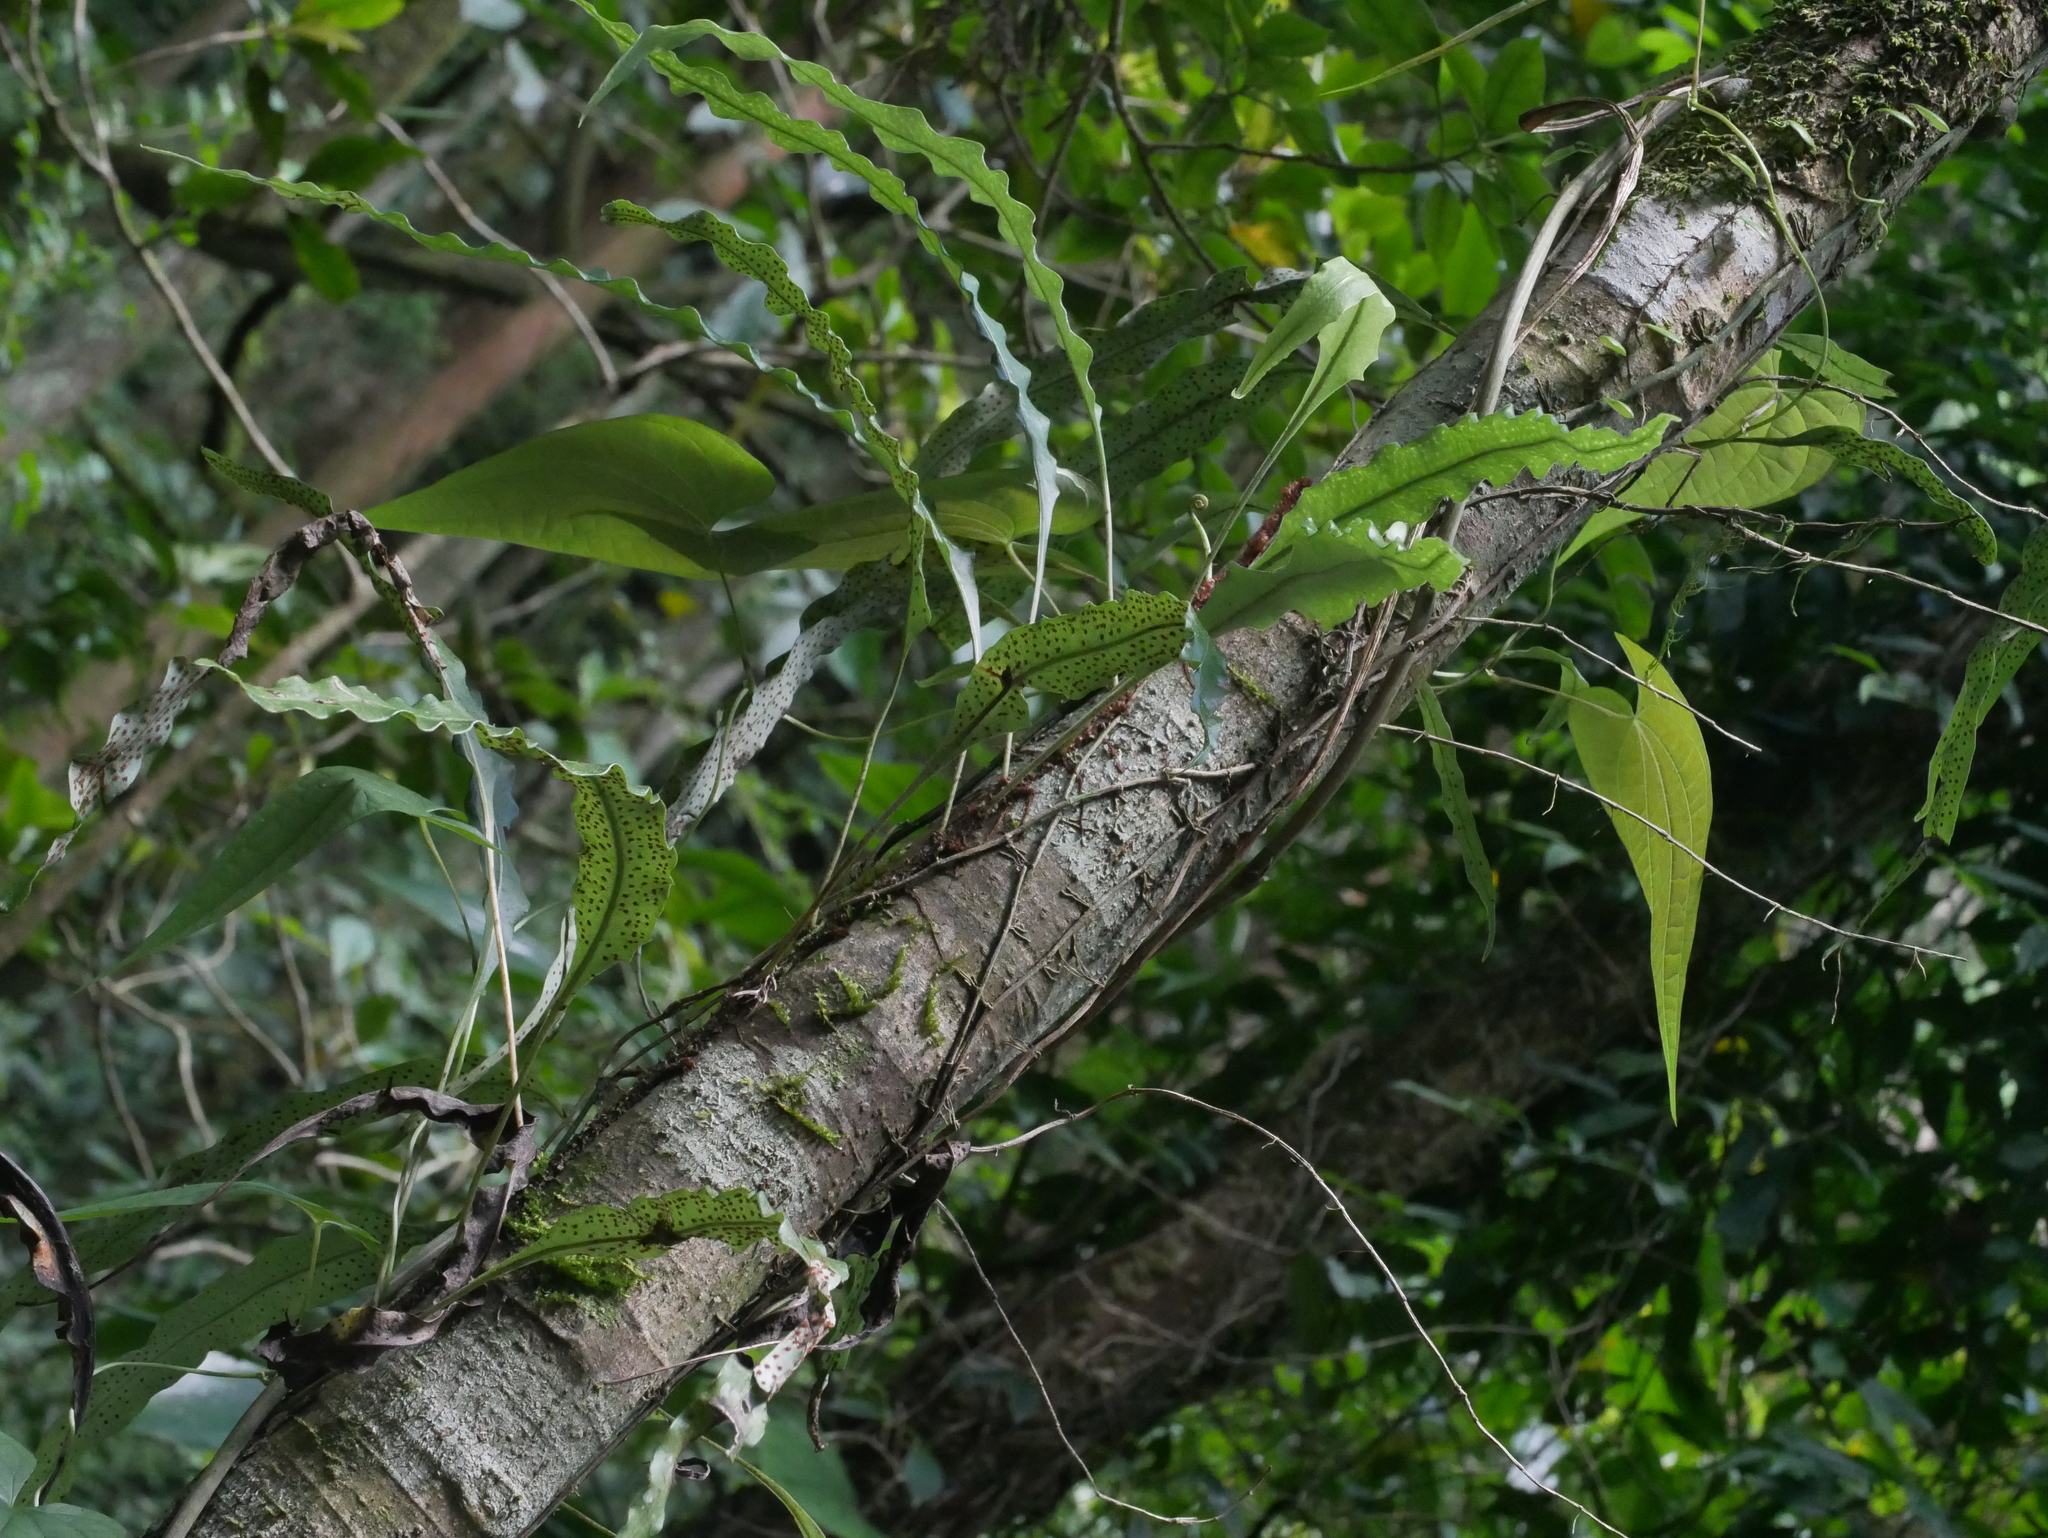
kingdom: Plantae
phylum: Tracheophyta
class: Polypodiopsida
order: Polypodiales
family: Polypodiaceae
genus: Lepisorus
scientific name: Lepisorus superficialis
